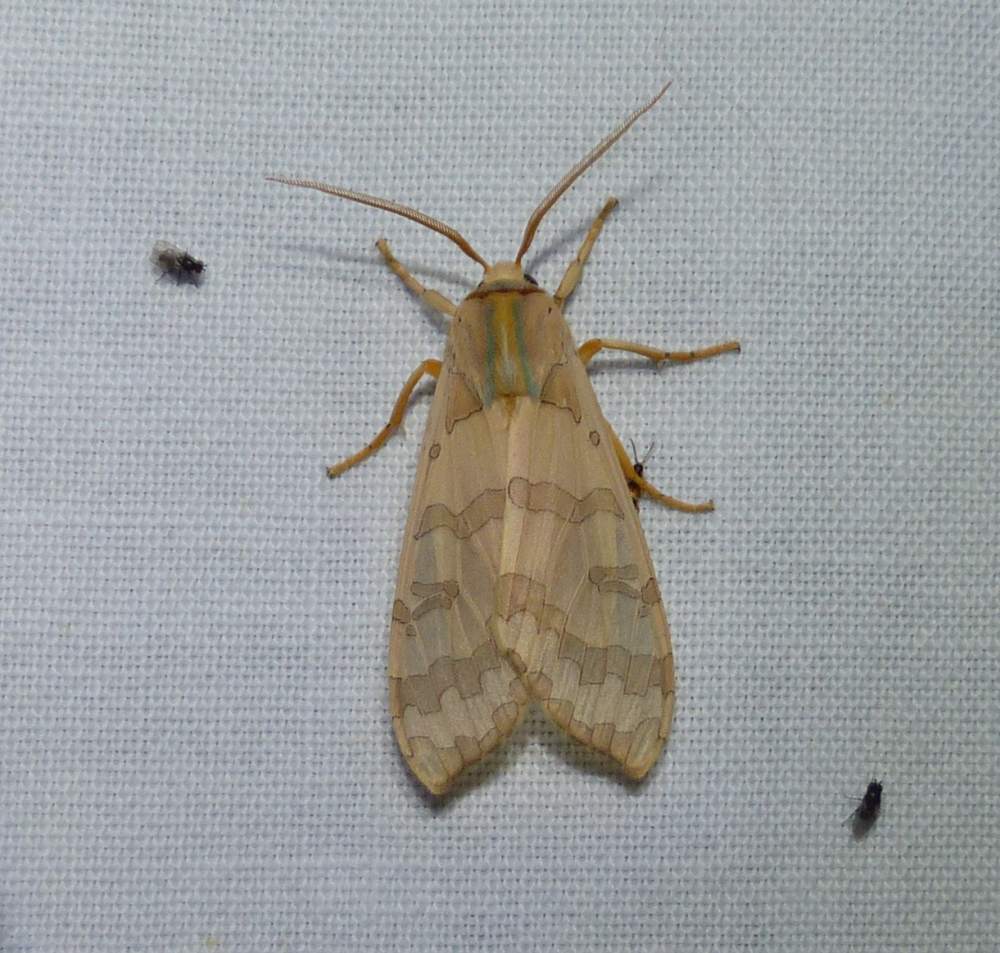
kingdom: Animalia
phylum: Arthropoda
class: Insecta
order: Lepidoptera
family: Erebidae
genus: Halysidota
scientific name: Halysidota tessellaris
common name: Banded tussock moth
